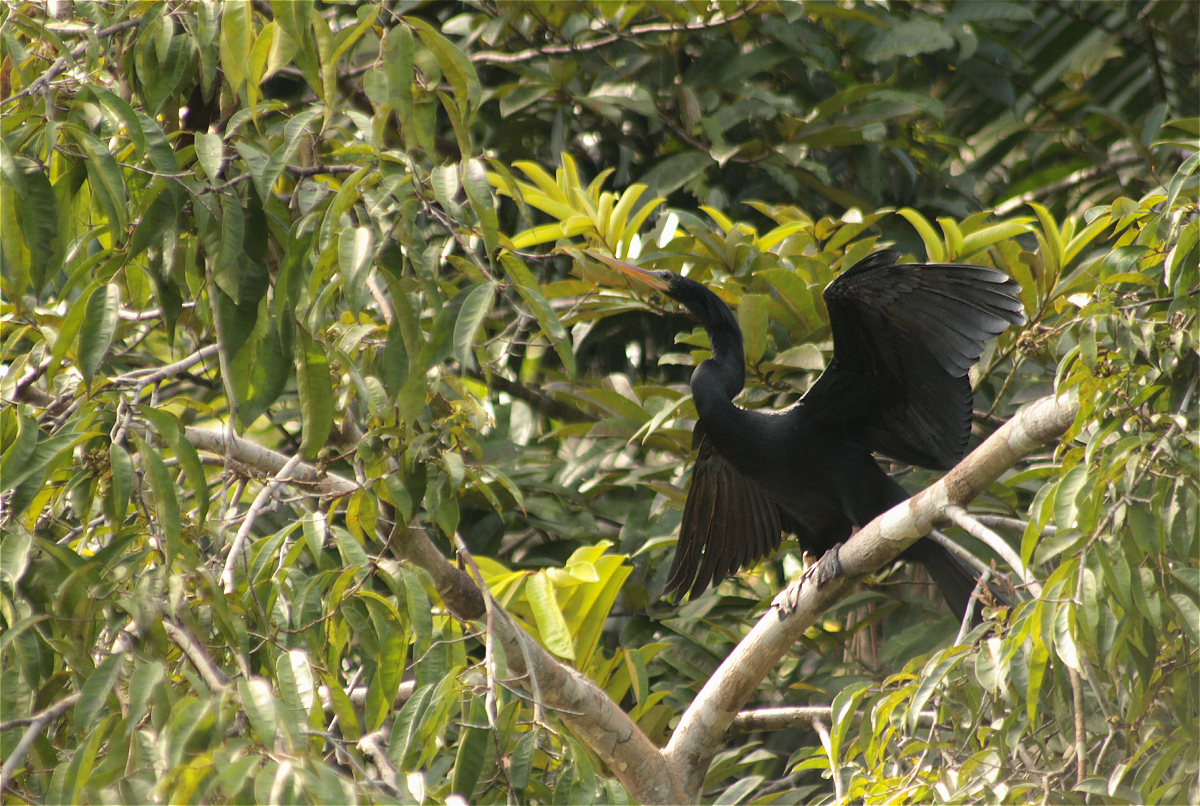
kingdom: Animalia
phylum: Chordata
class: Aves
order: Suliformes
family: Anhingidae
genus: Anhinga
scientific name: Anhinga anhinga
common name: Anhinga
